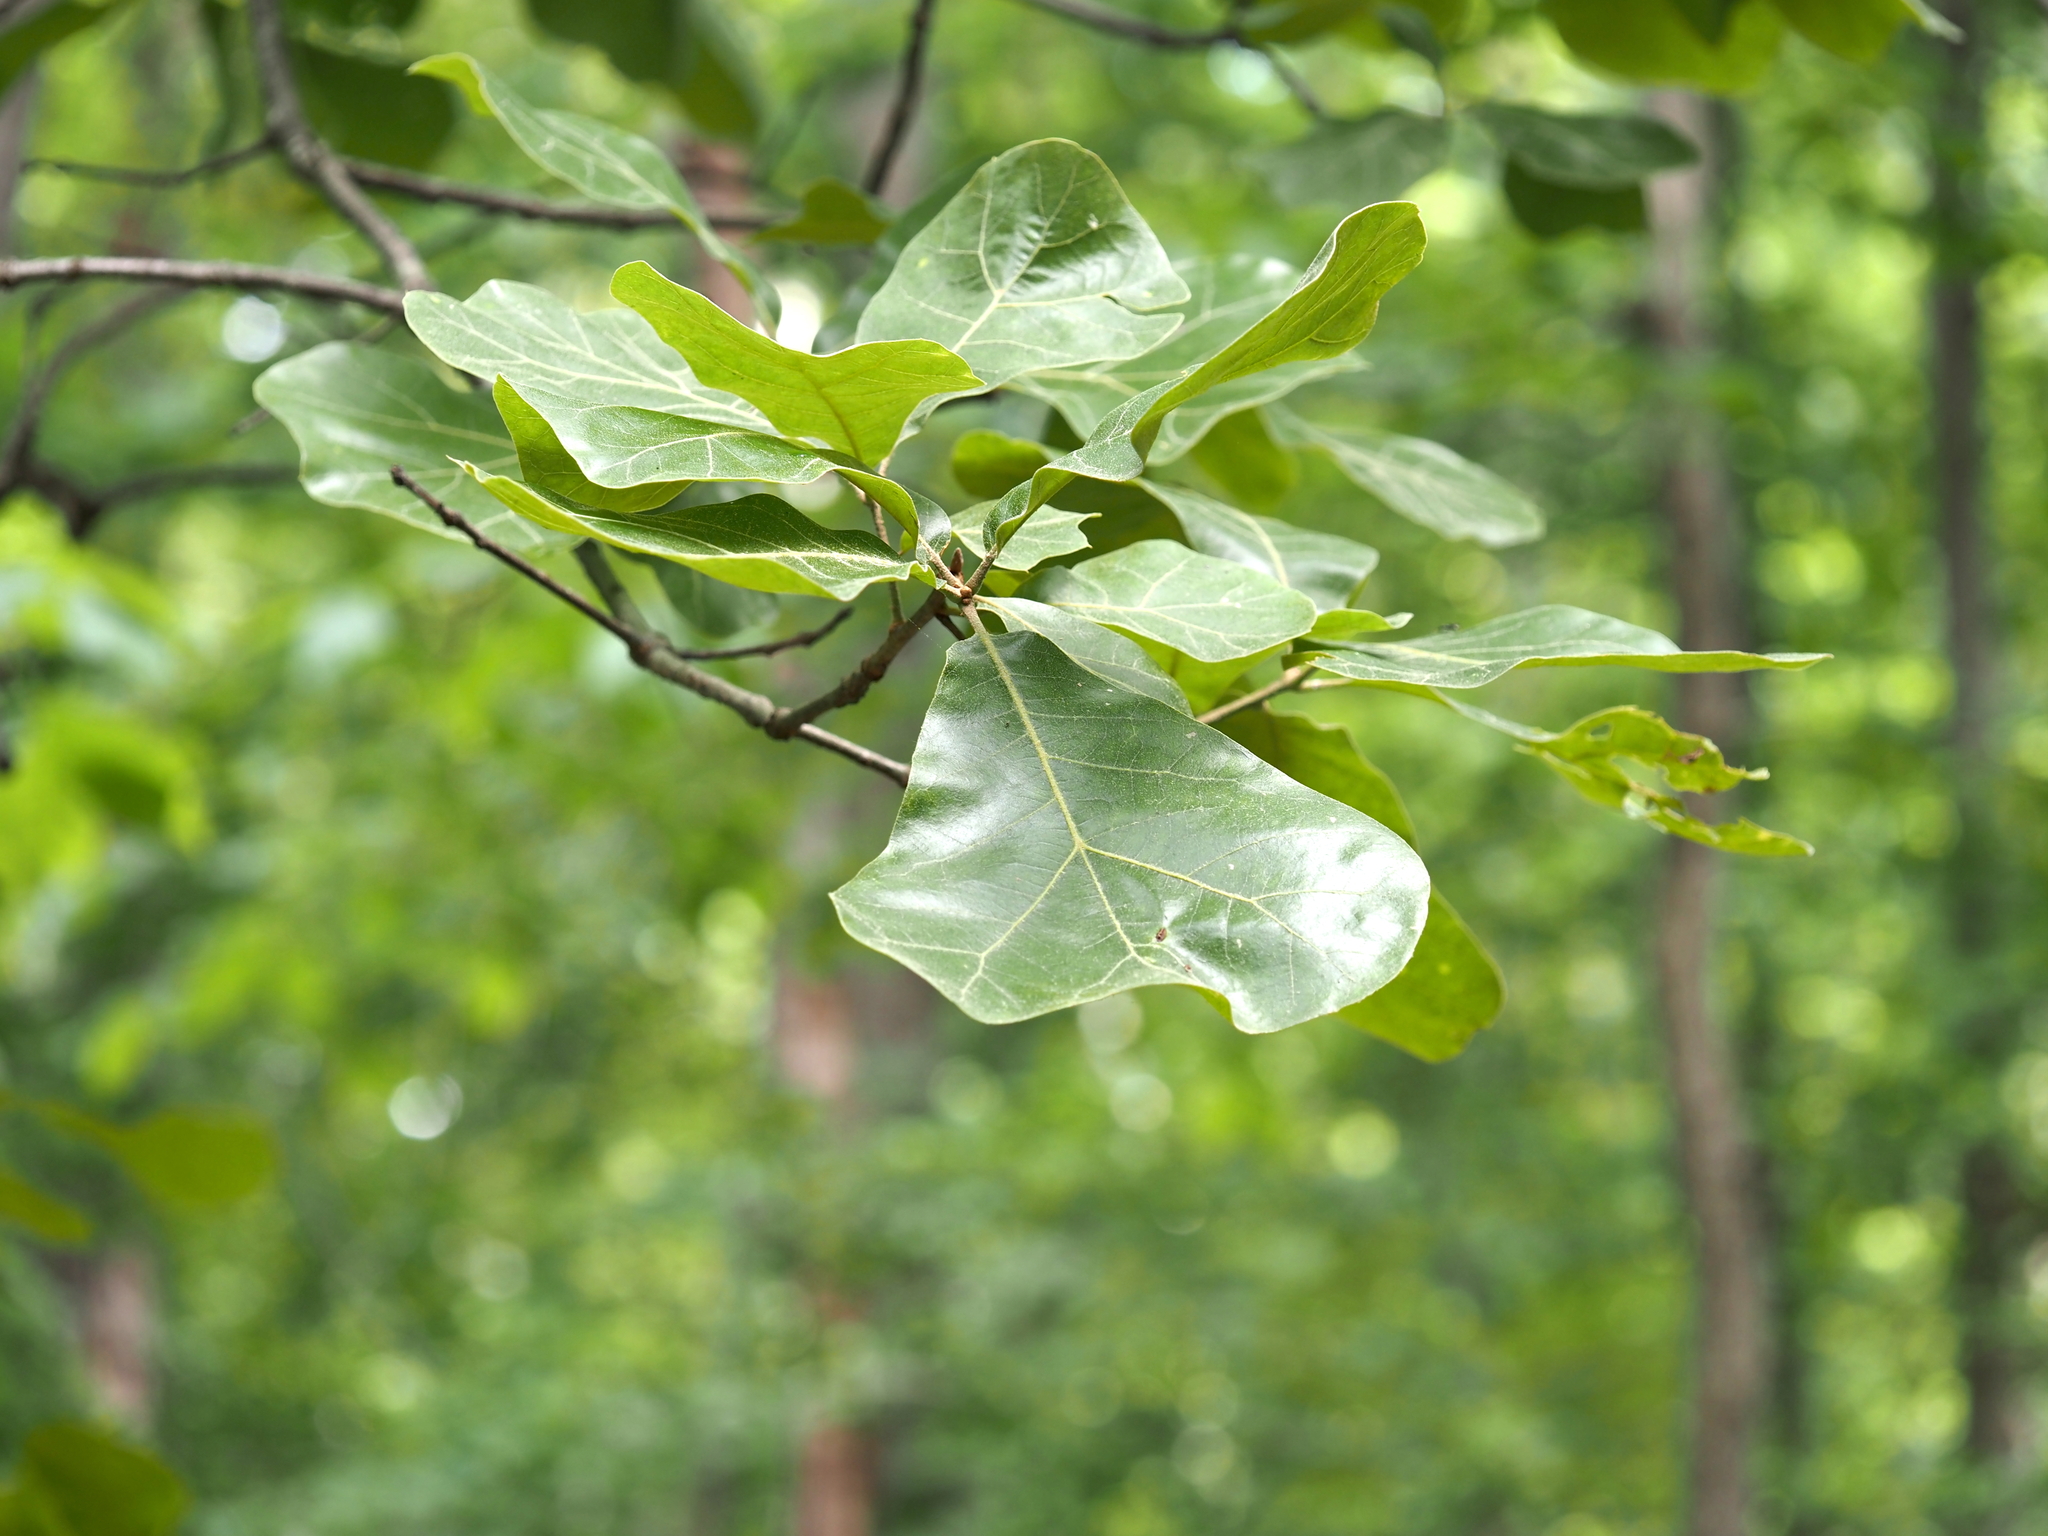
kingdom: Plantae
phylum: Tracheophyta
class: Magnoliopsida
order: Fagales
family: Fagaceae
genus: Quercus
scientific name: Quercus marilandica
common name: Blackjack oak
